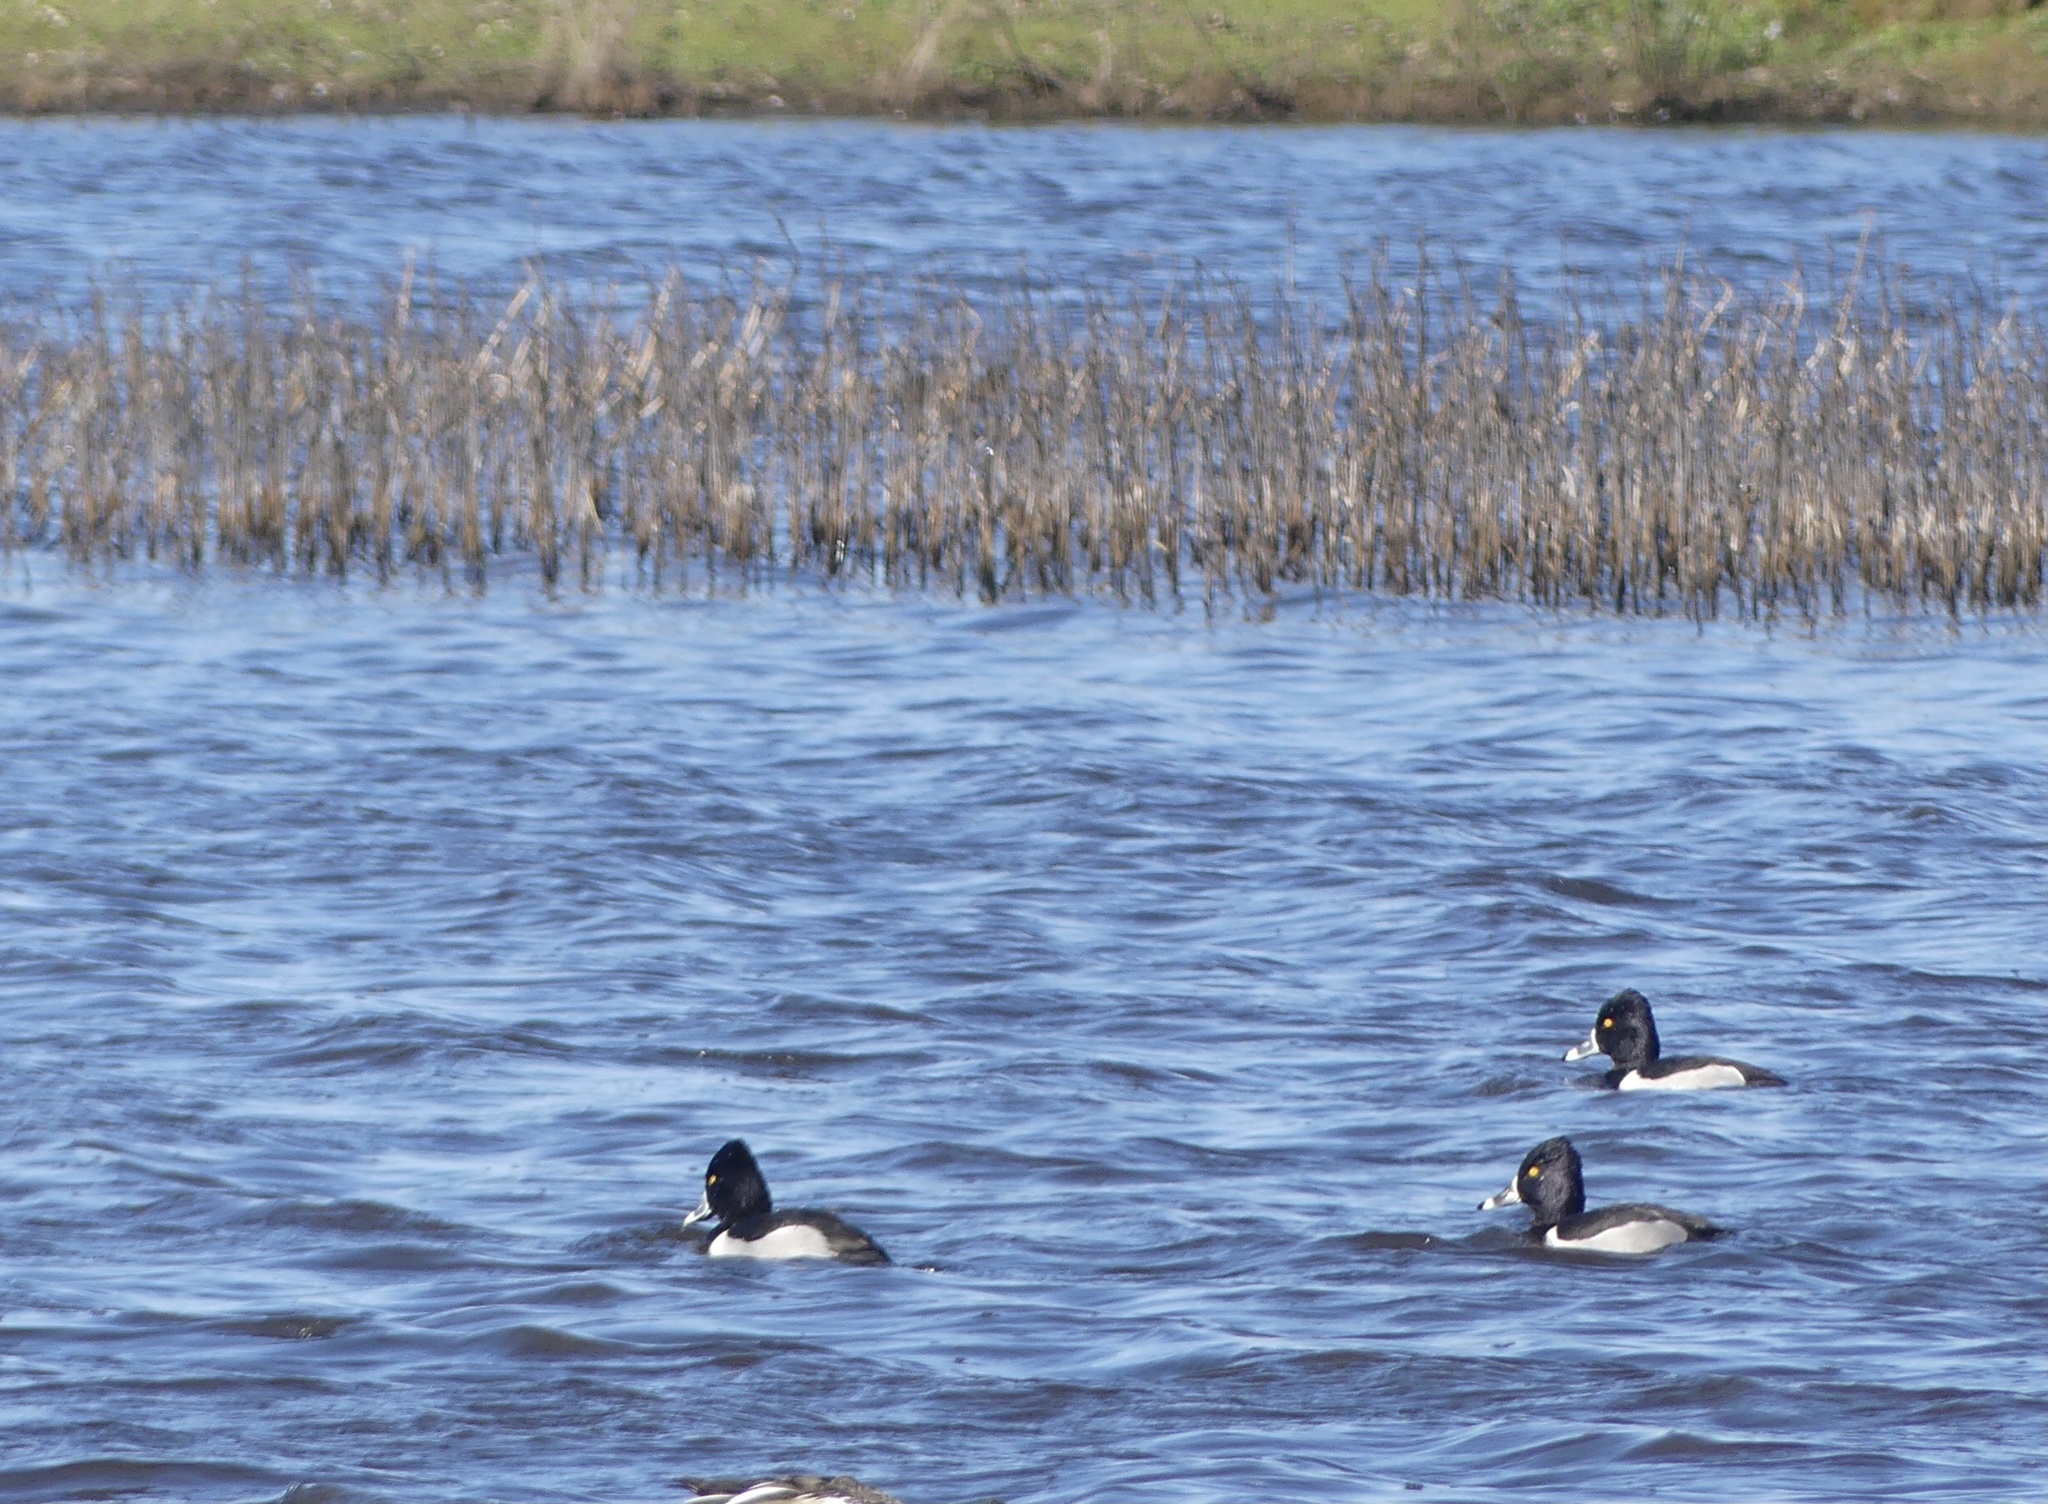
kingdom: Animalia
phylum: Chordata
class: Aves
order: Anseriformes
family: Anatidae
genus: Aythya
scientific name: Aythya collaris
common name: Ring-necked duck
